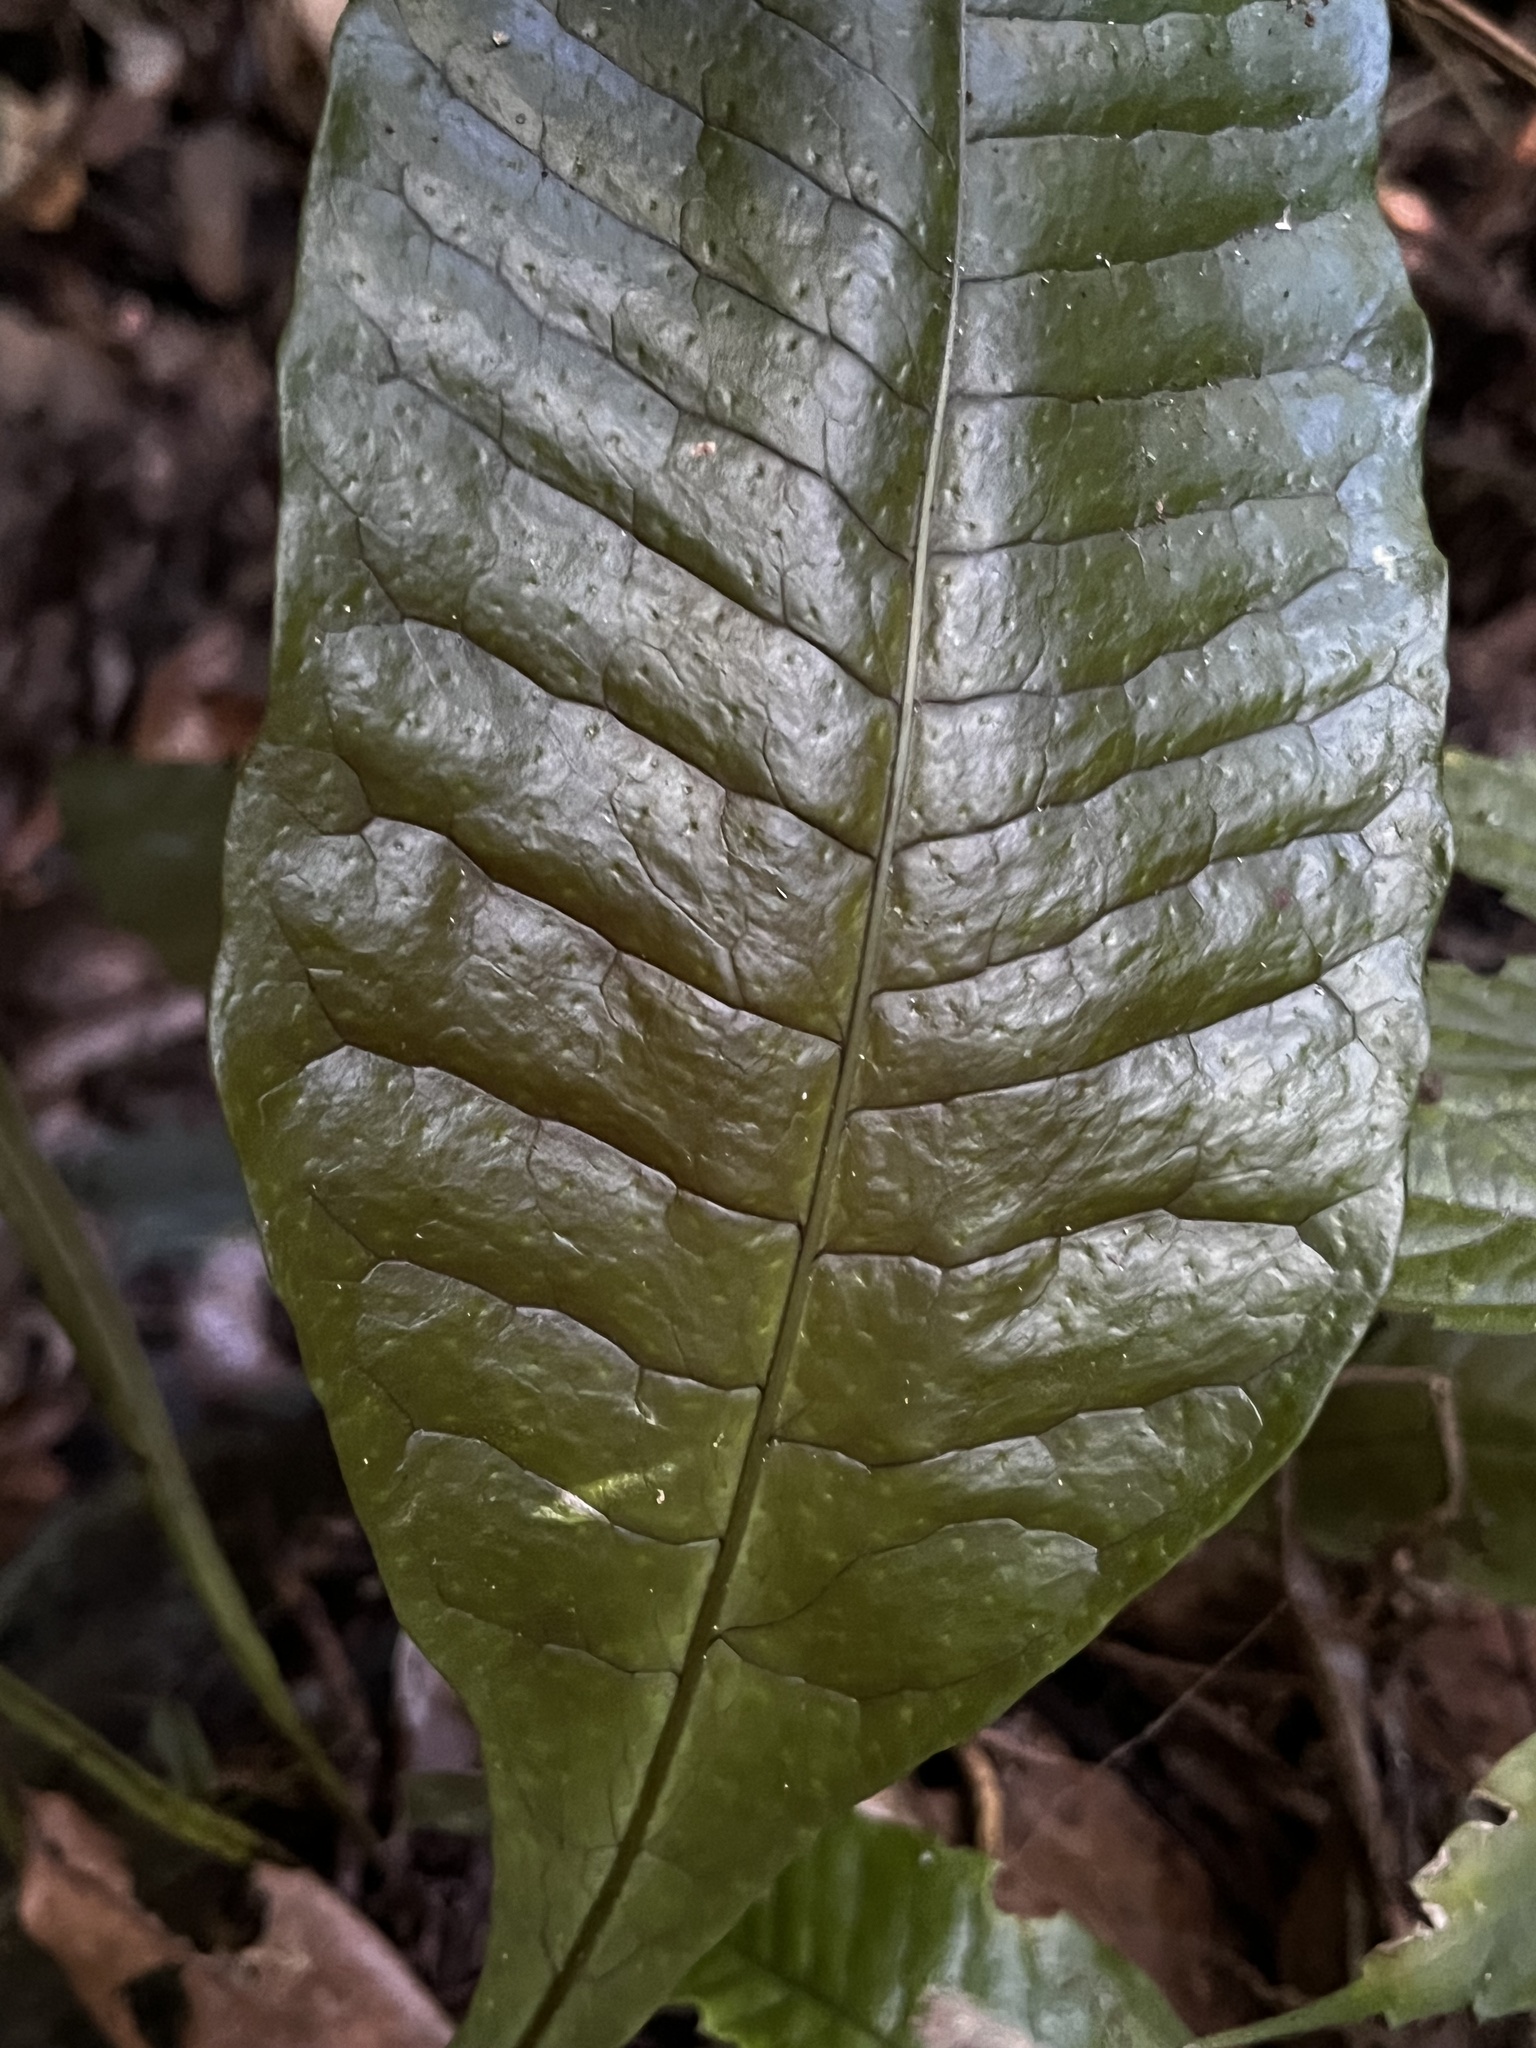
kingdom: Plantae
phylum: Tracheophyta
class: Polypodiopsida
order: Polypodiales
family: Polypodiaceae
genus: Leptochilus
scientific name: Leptochilus decurrens
